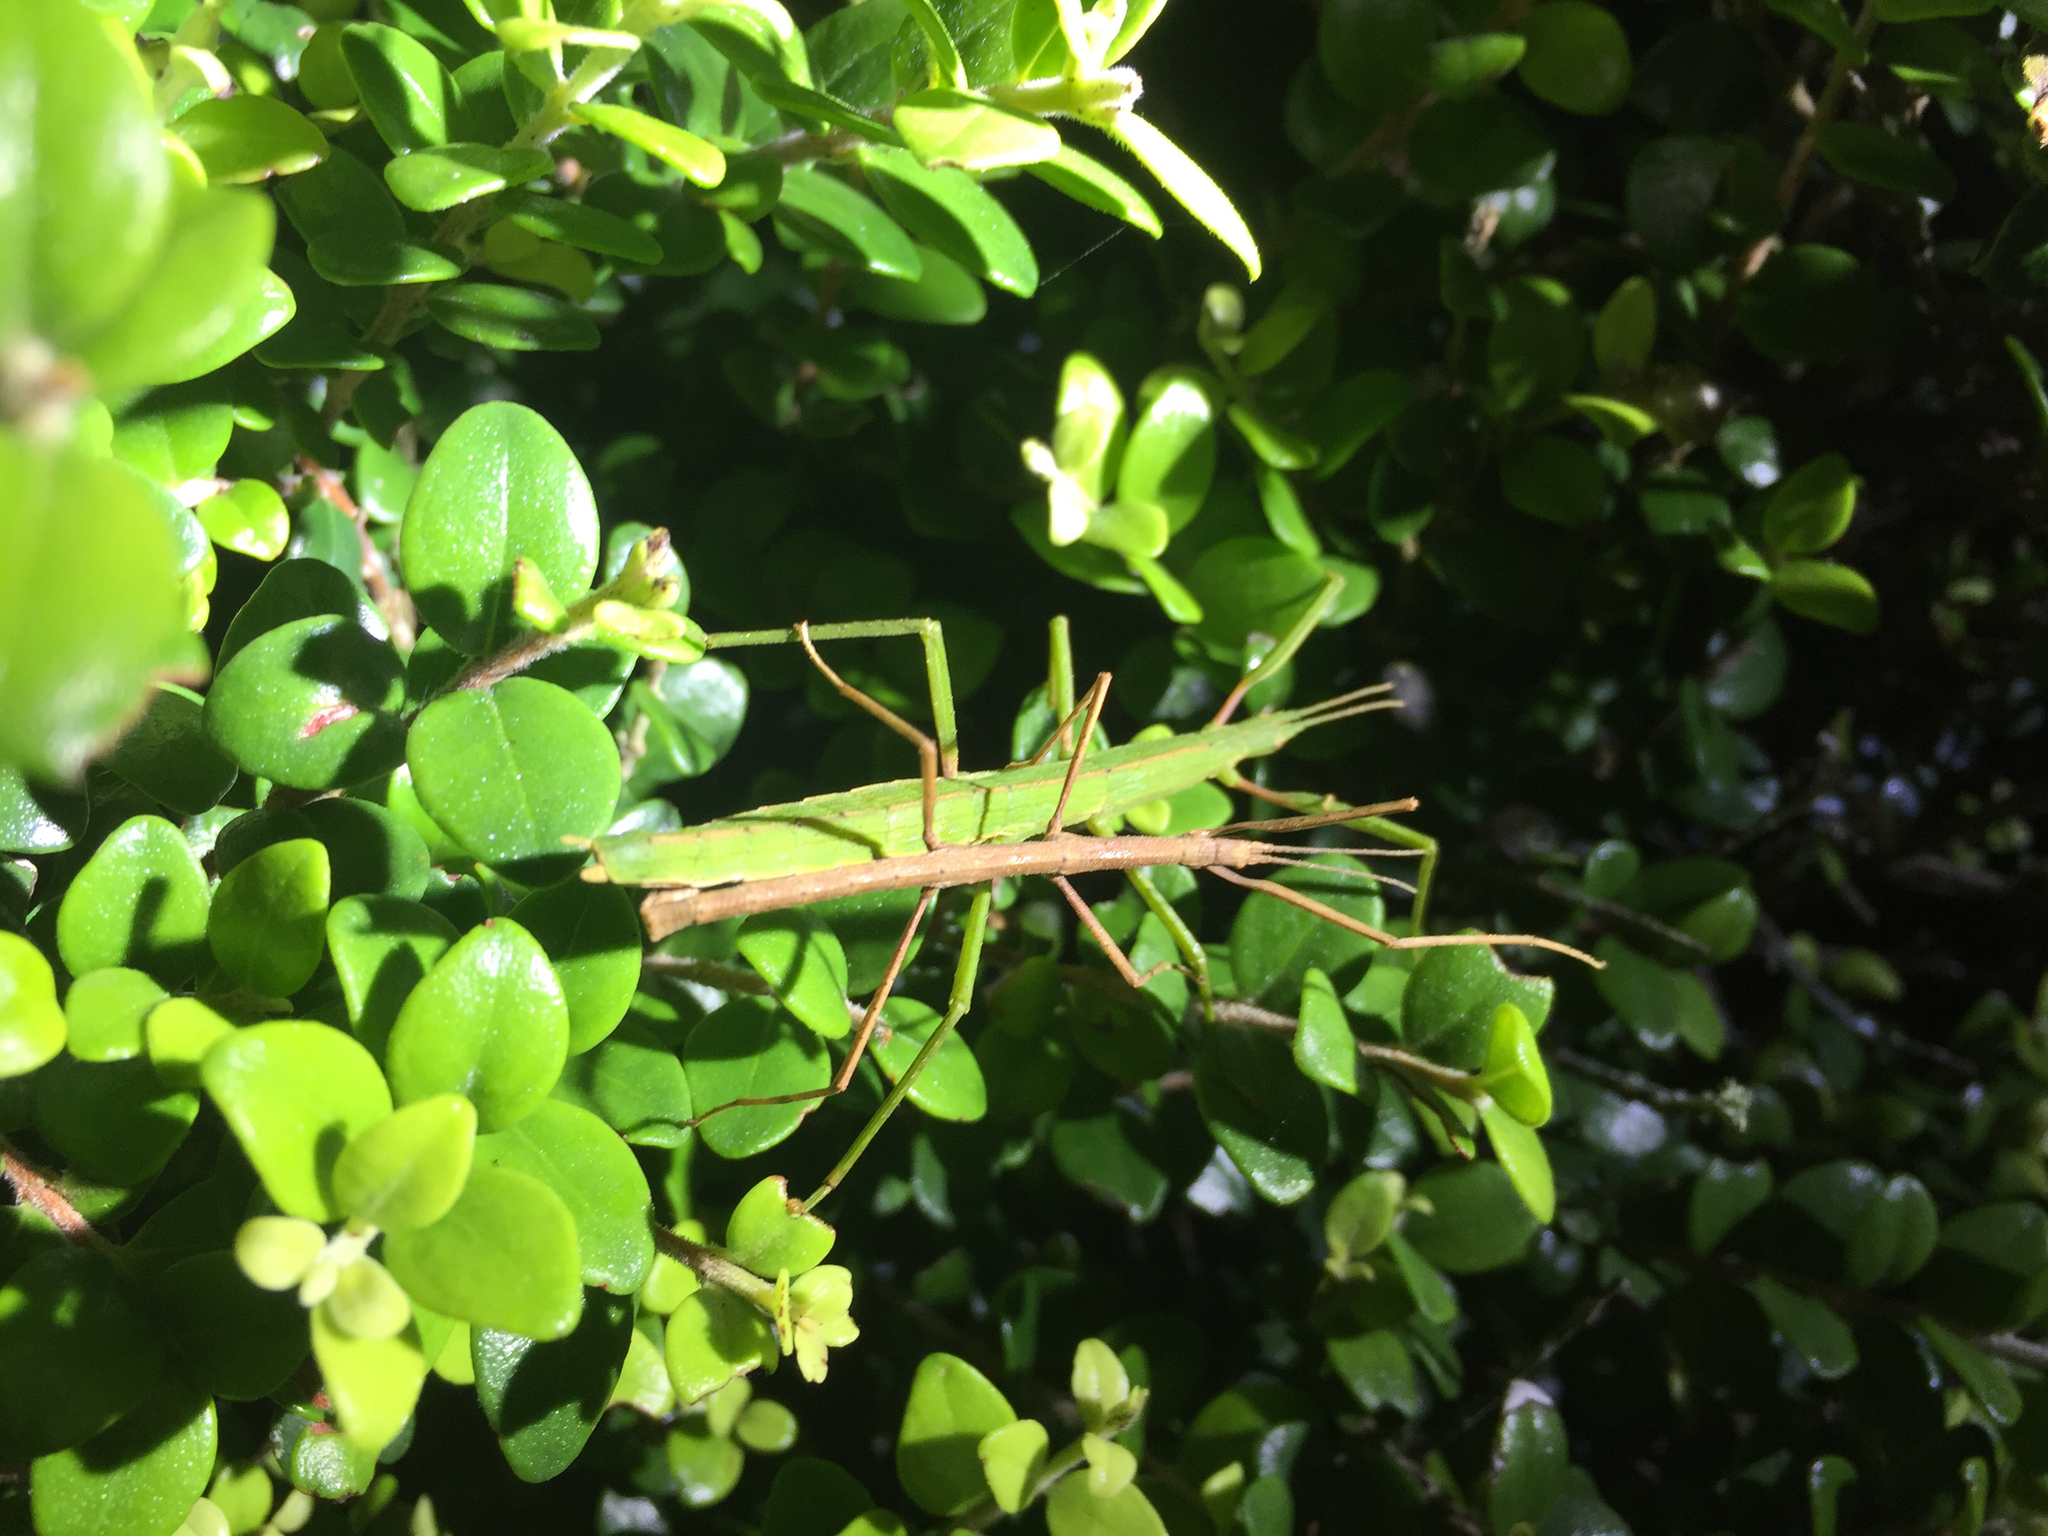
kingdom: Animalia
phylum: Arthropoda
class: Insecta
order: Phasmida
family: Phasmatidae
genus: Tectarchus
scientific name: Tectarchus huttoni
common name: The common ridge-backed stick insect
